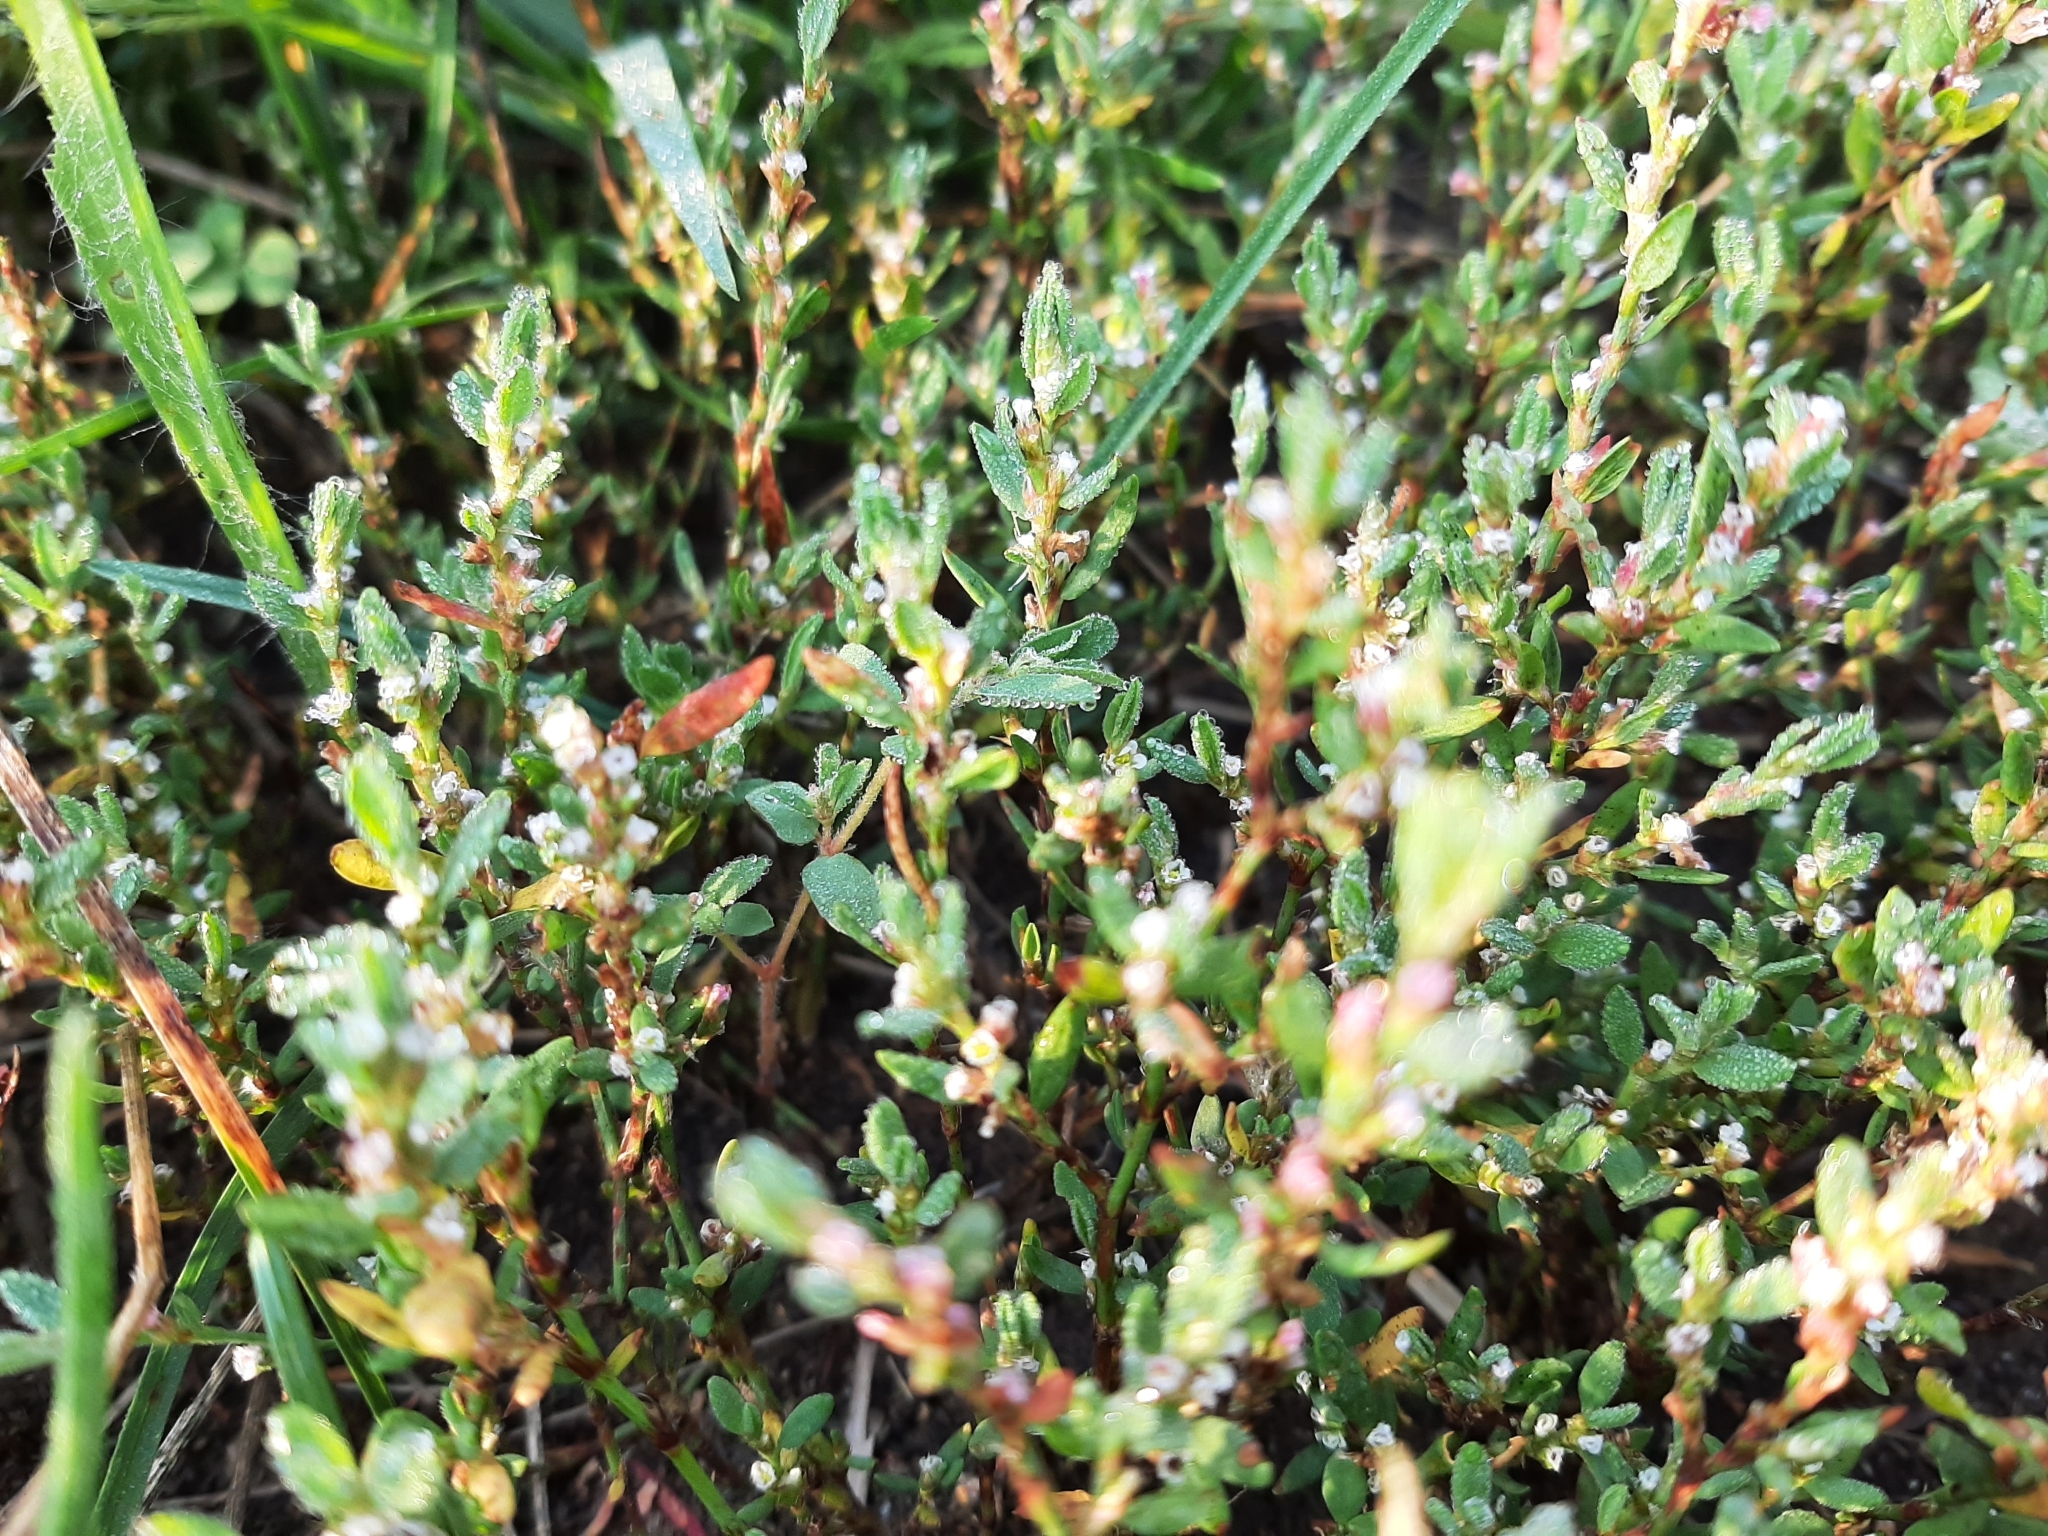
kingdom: Plantae
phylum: Tracheophyta
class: Magnoliopsida
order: Caryophyllales
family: Polygonaceae
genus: Polygonum
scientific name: Polygonum aviculare
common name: Prostrate knotweed
